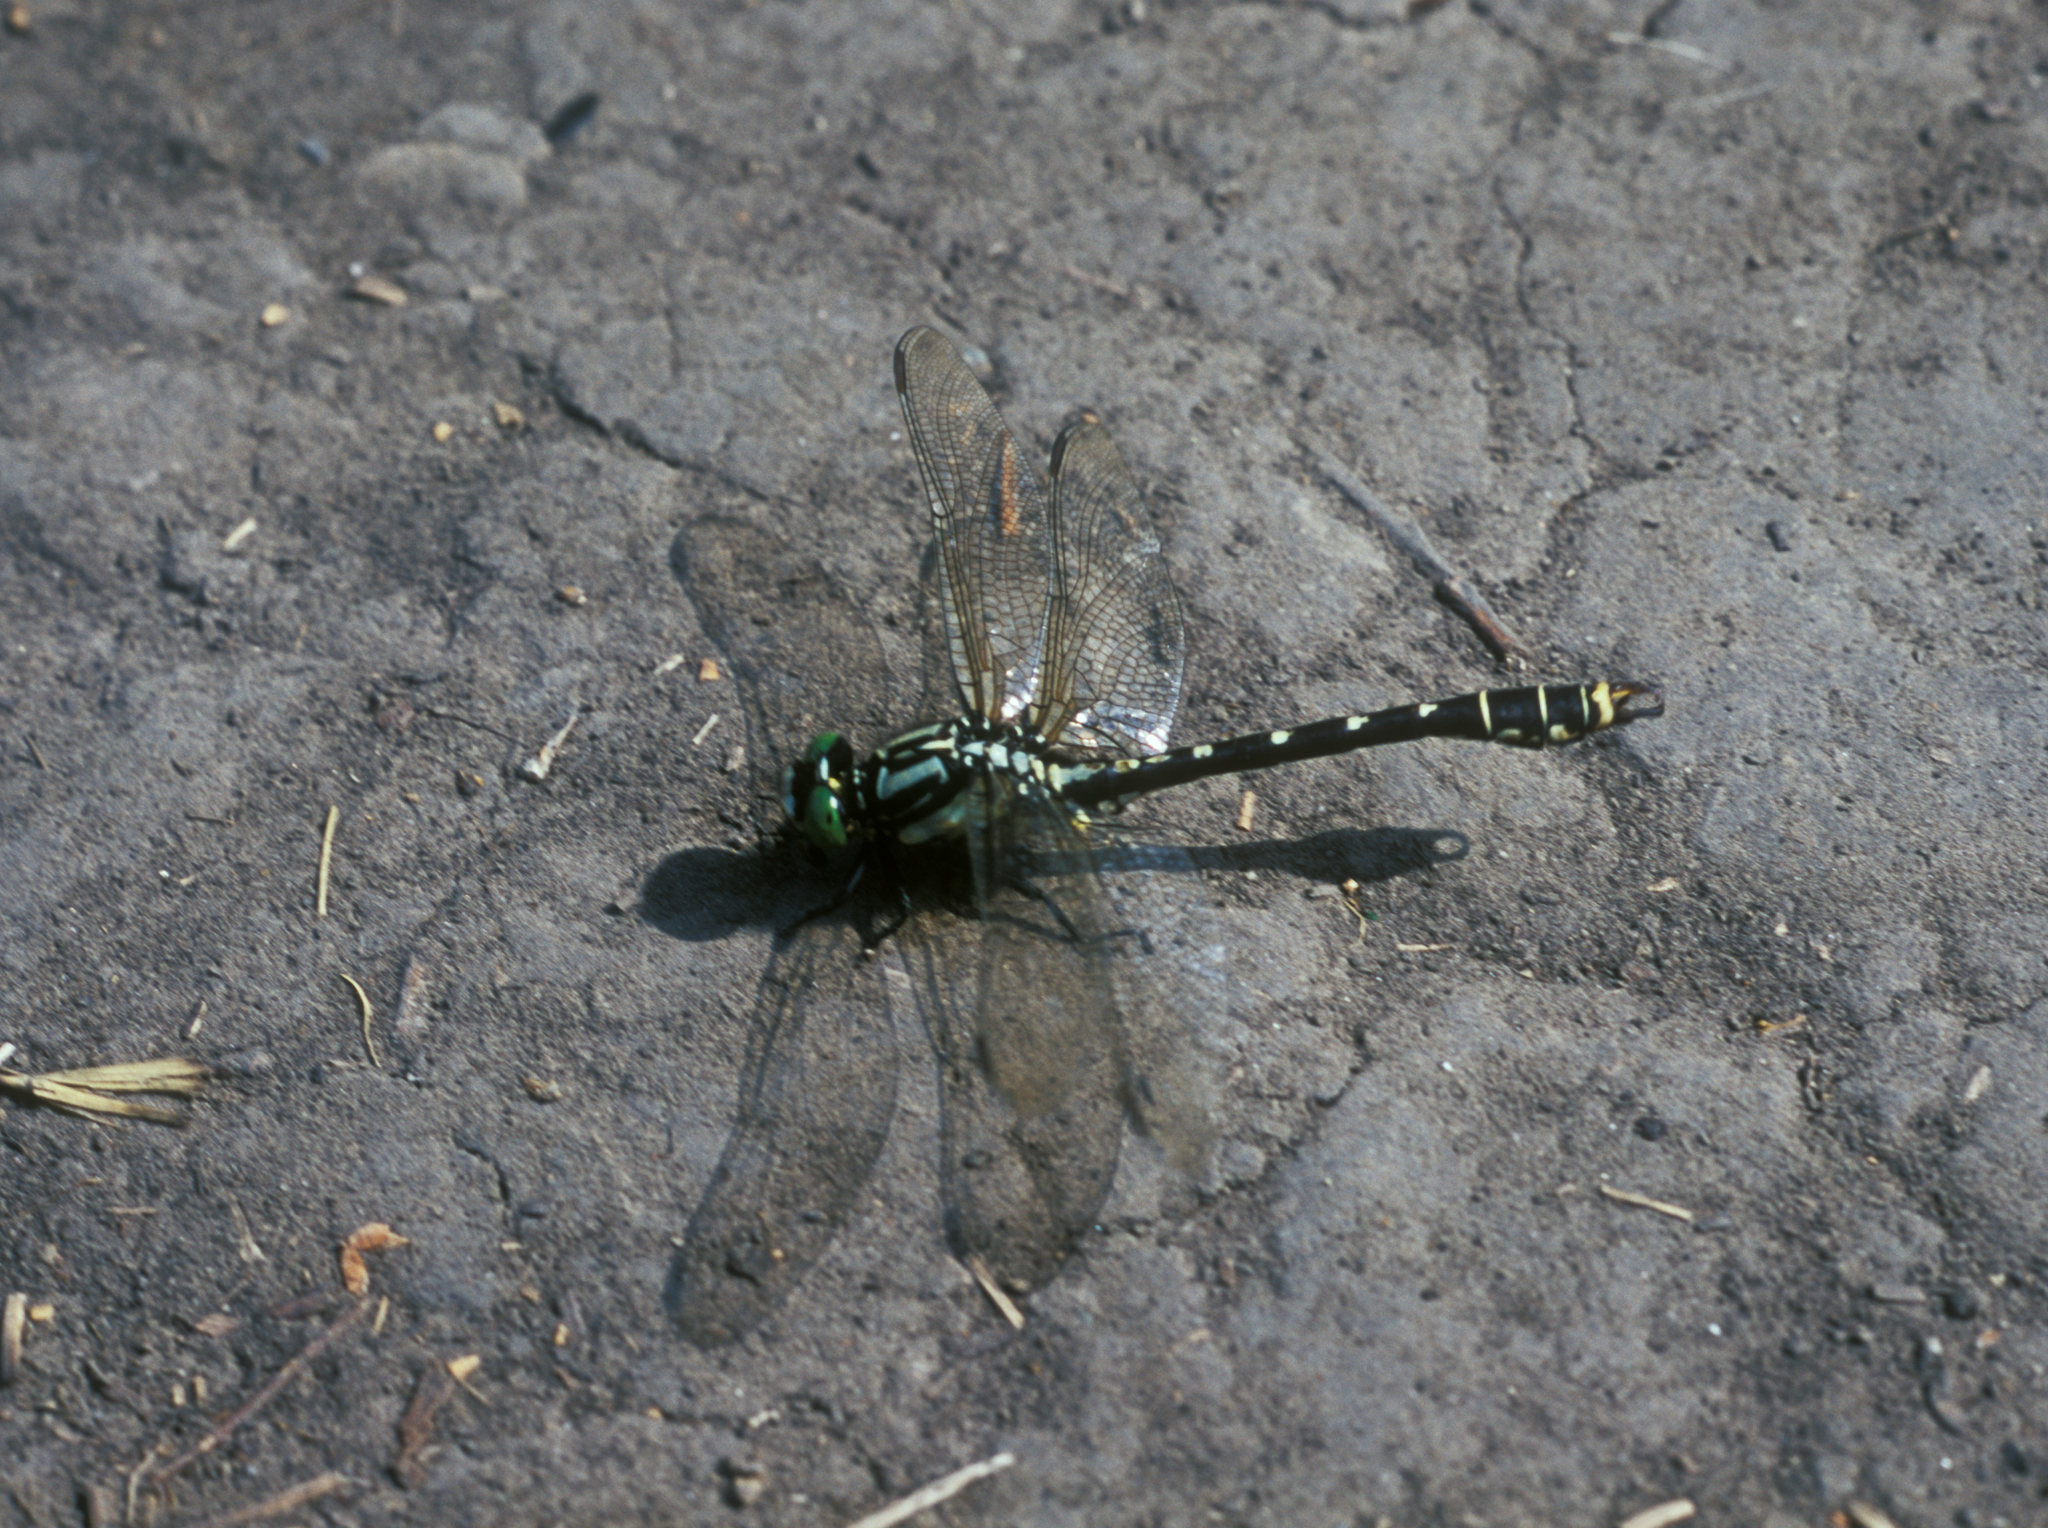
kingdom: Animalia
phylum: Arthropoda
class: Insecta
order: Odonata
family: Gomphidae
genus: Nihonogomphus
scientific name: Nihonogomphus ruptus
